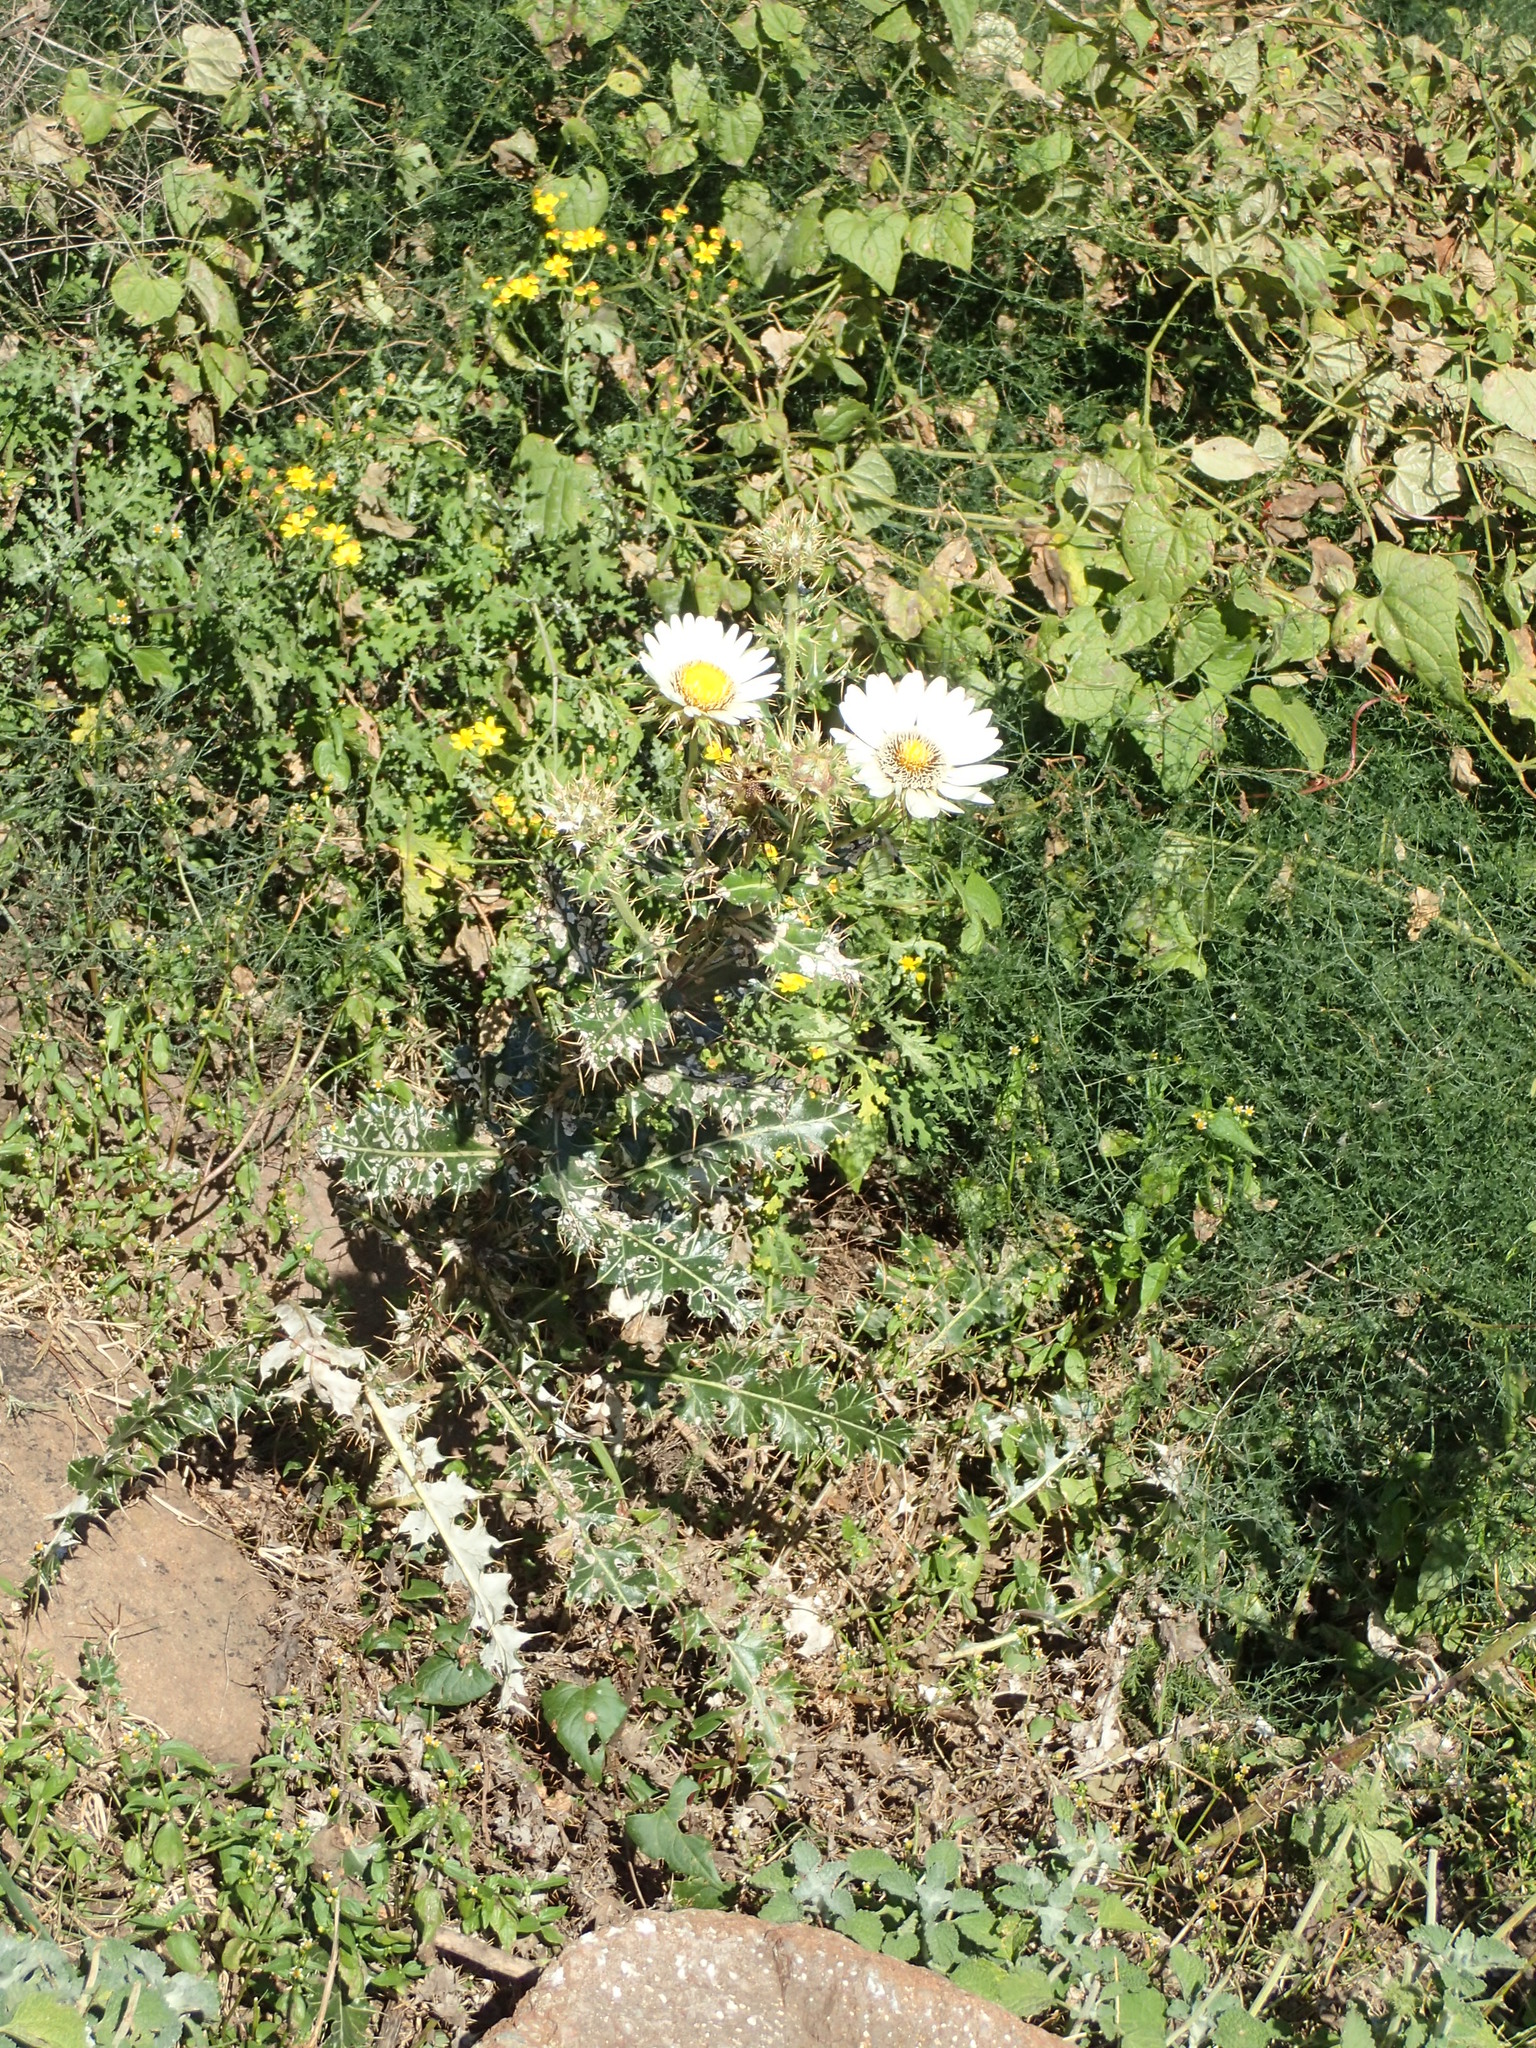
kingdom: Plantae
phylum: Tracheophyta
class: Magnoliopsida
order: Asterales
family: Asteraceae
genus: Berkheya
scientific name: Berkheya cirsiifolia
